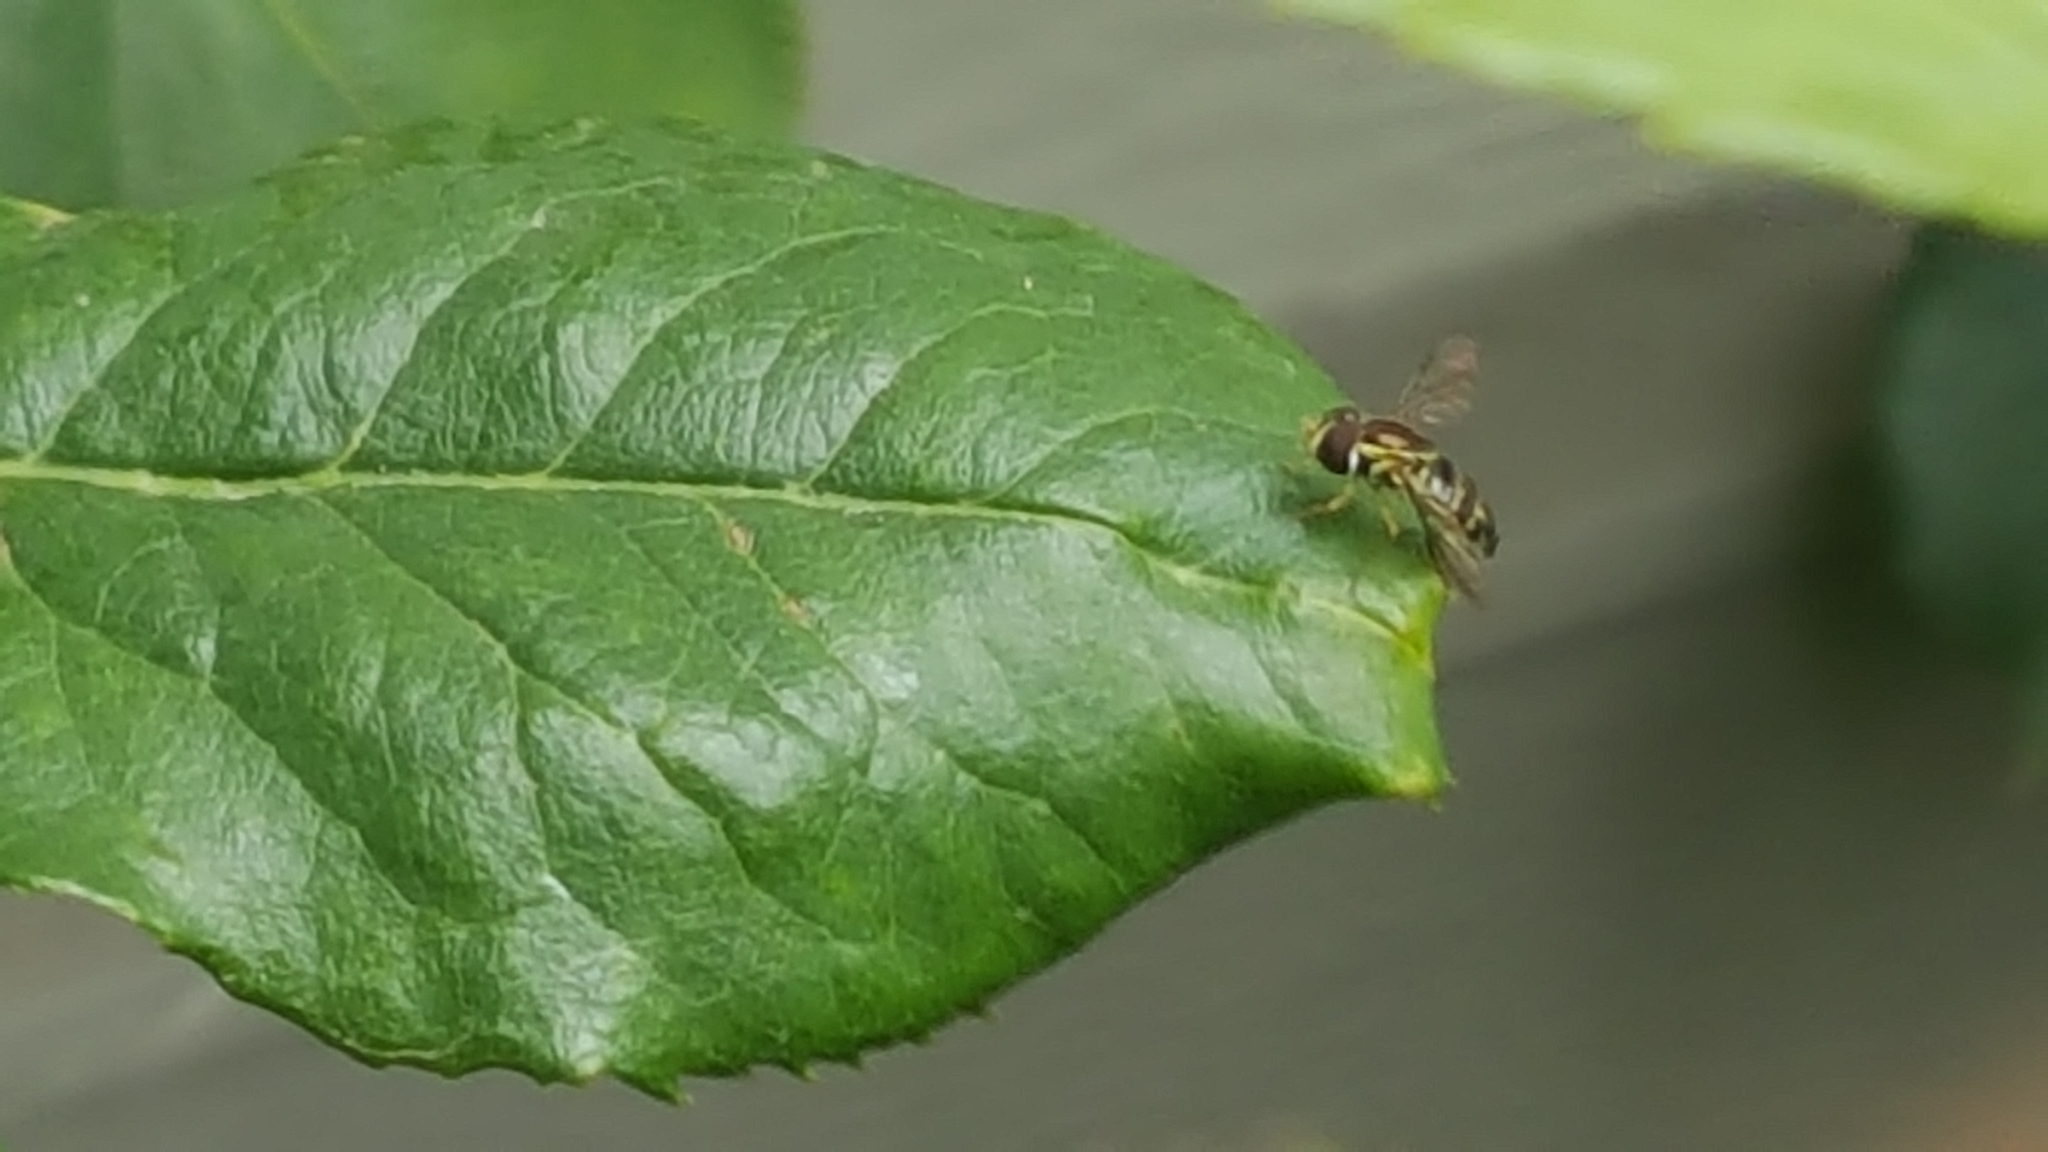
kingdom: Animalia
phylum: Arthropoda
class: Insecta
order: Diptera
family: Syrphidae
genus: Toxomerus
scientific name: Toxomerus occidentalis
